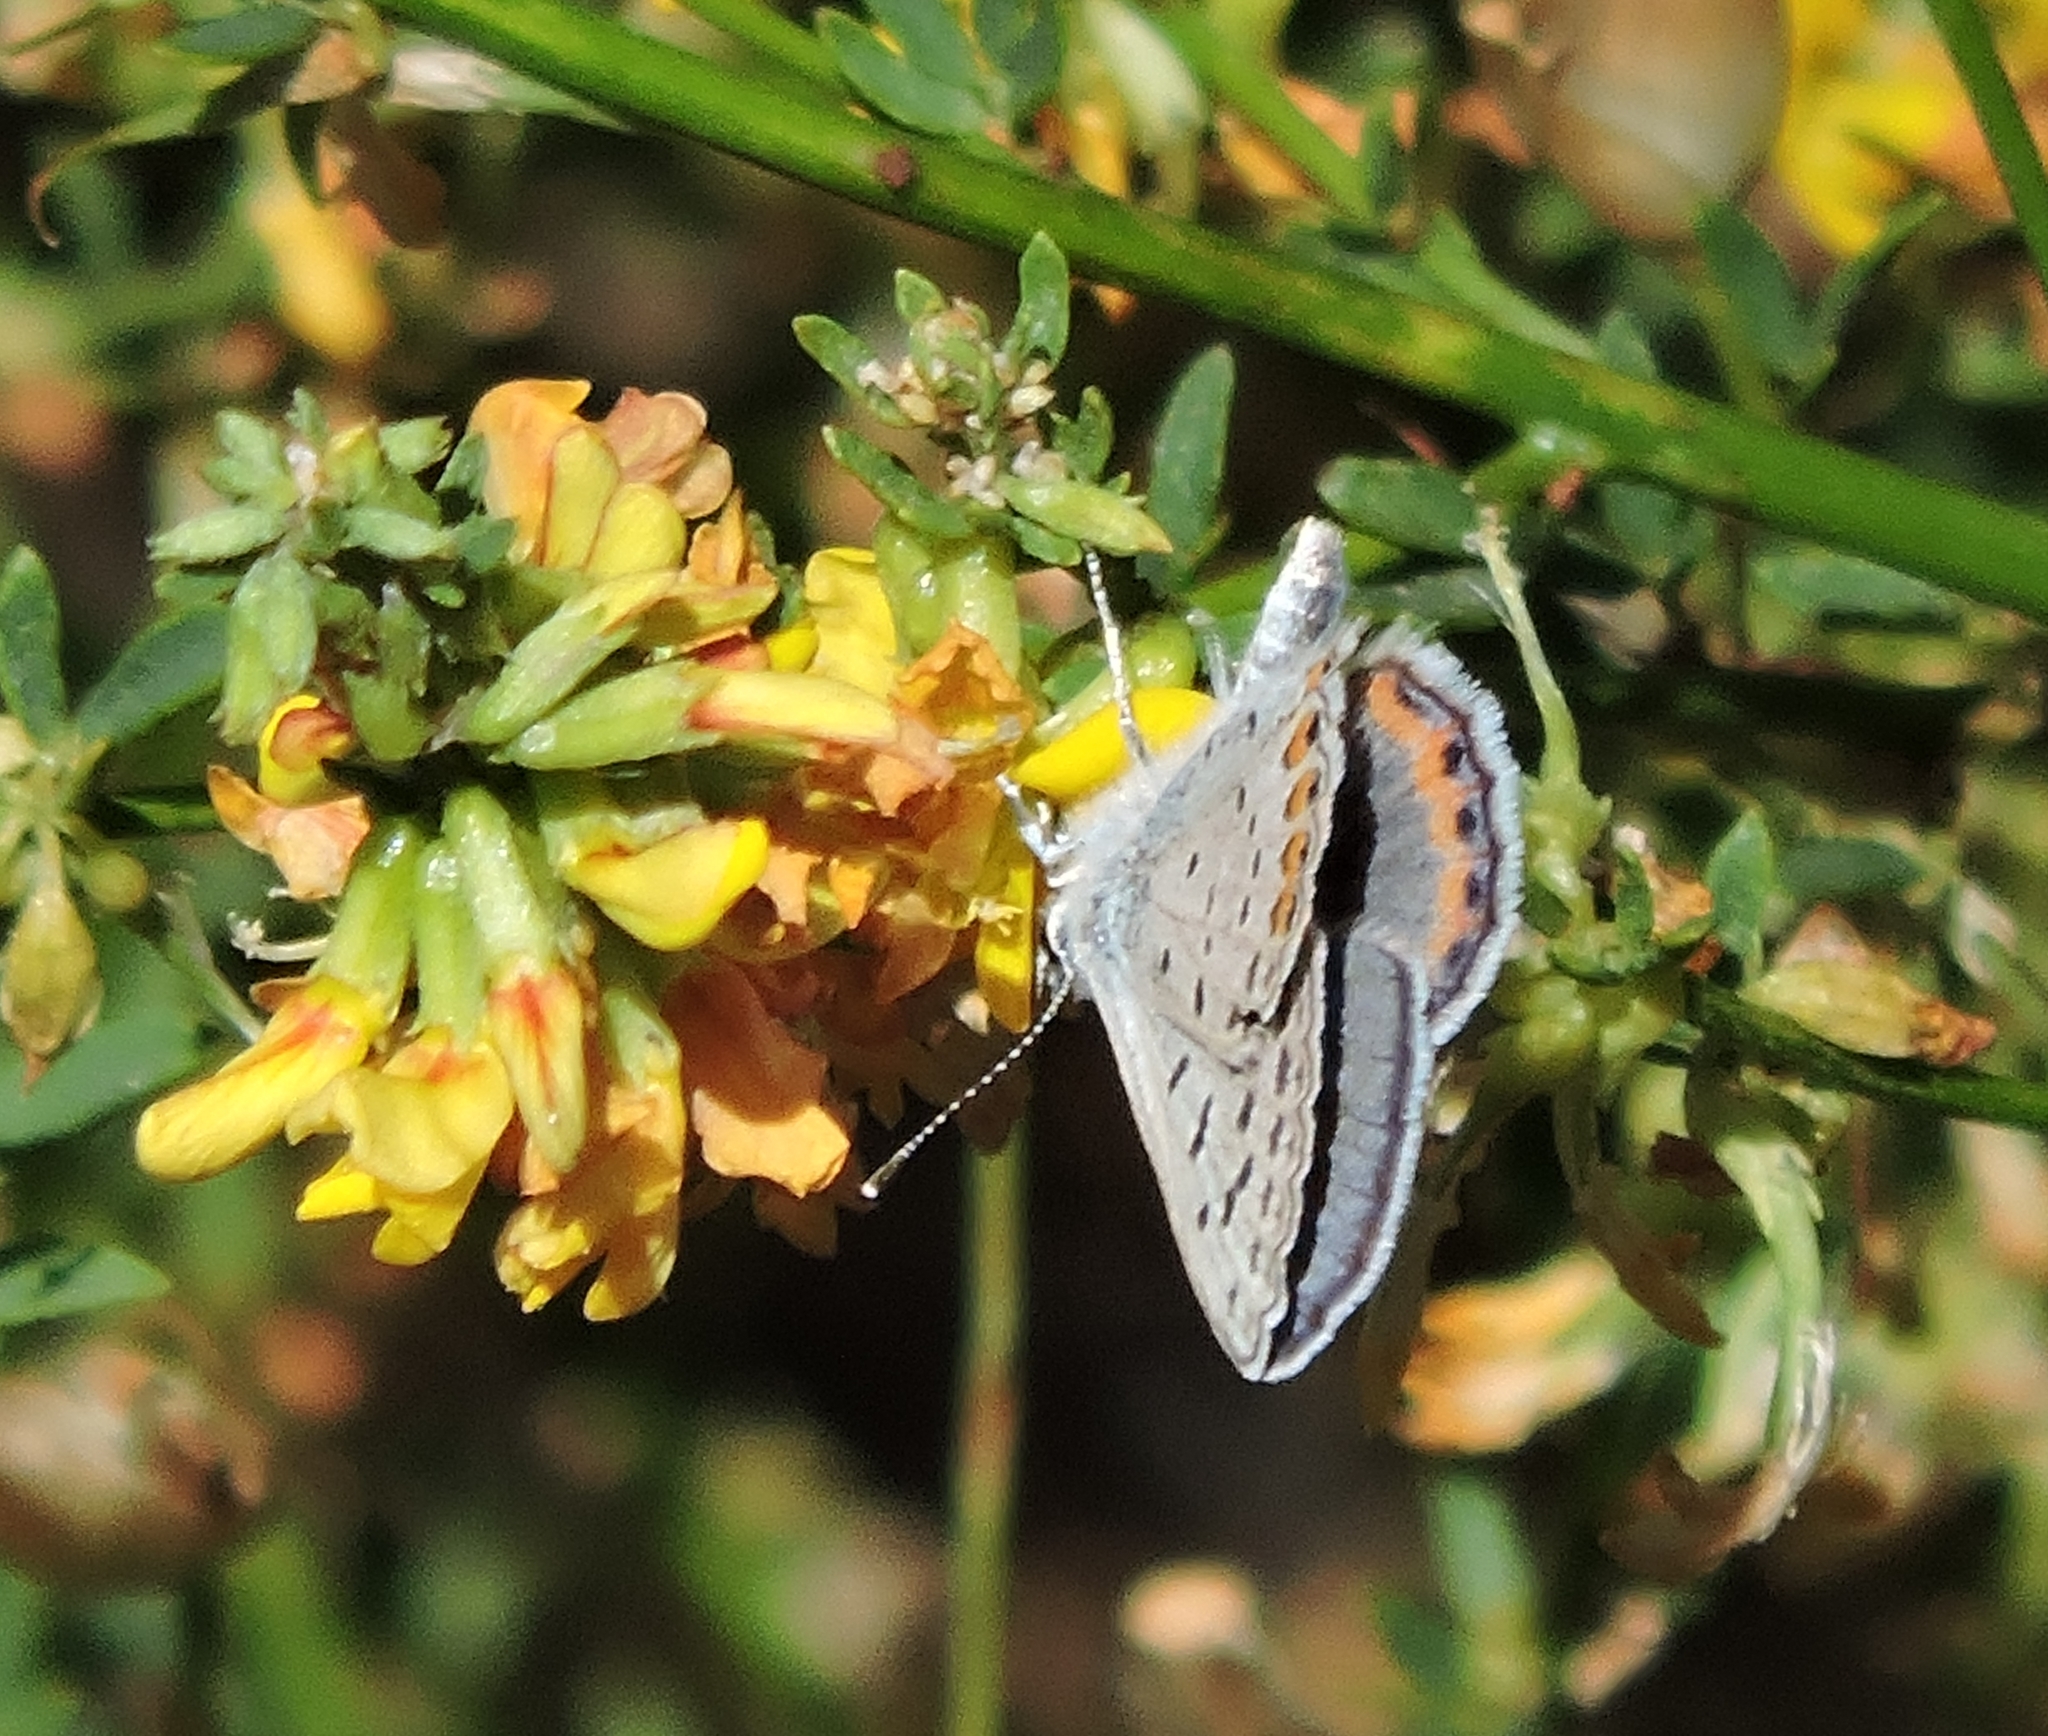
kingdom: Animalia
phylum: Arthropoda
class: Insecta
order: Lepidoptera
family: Lycaenidae
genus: Icaricia
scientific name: Icaricia acmon
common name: Acmon blue
